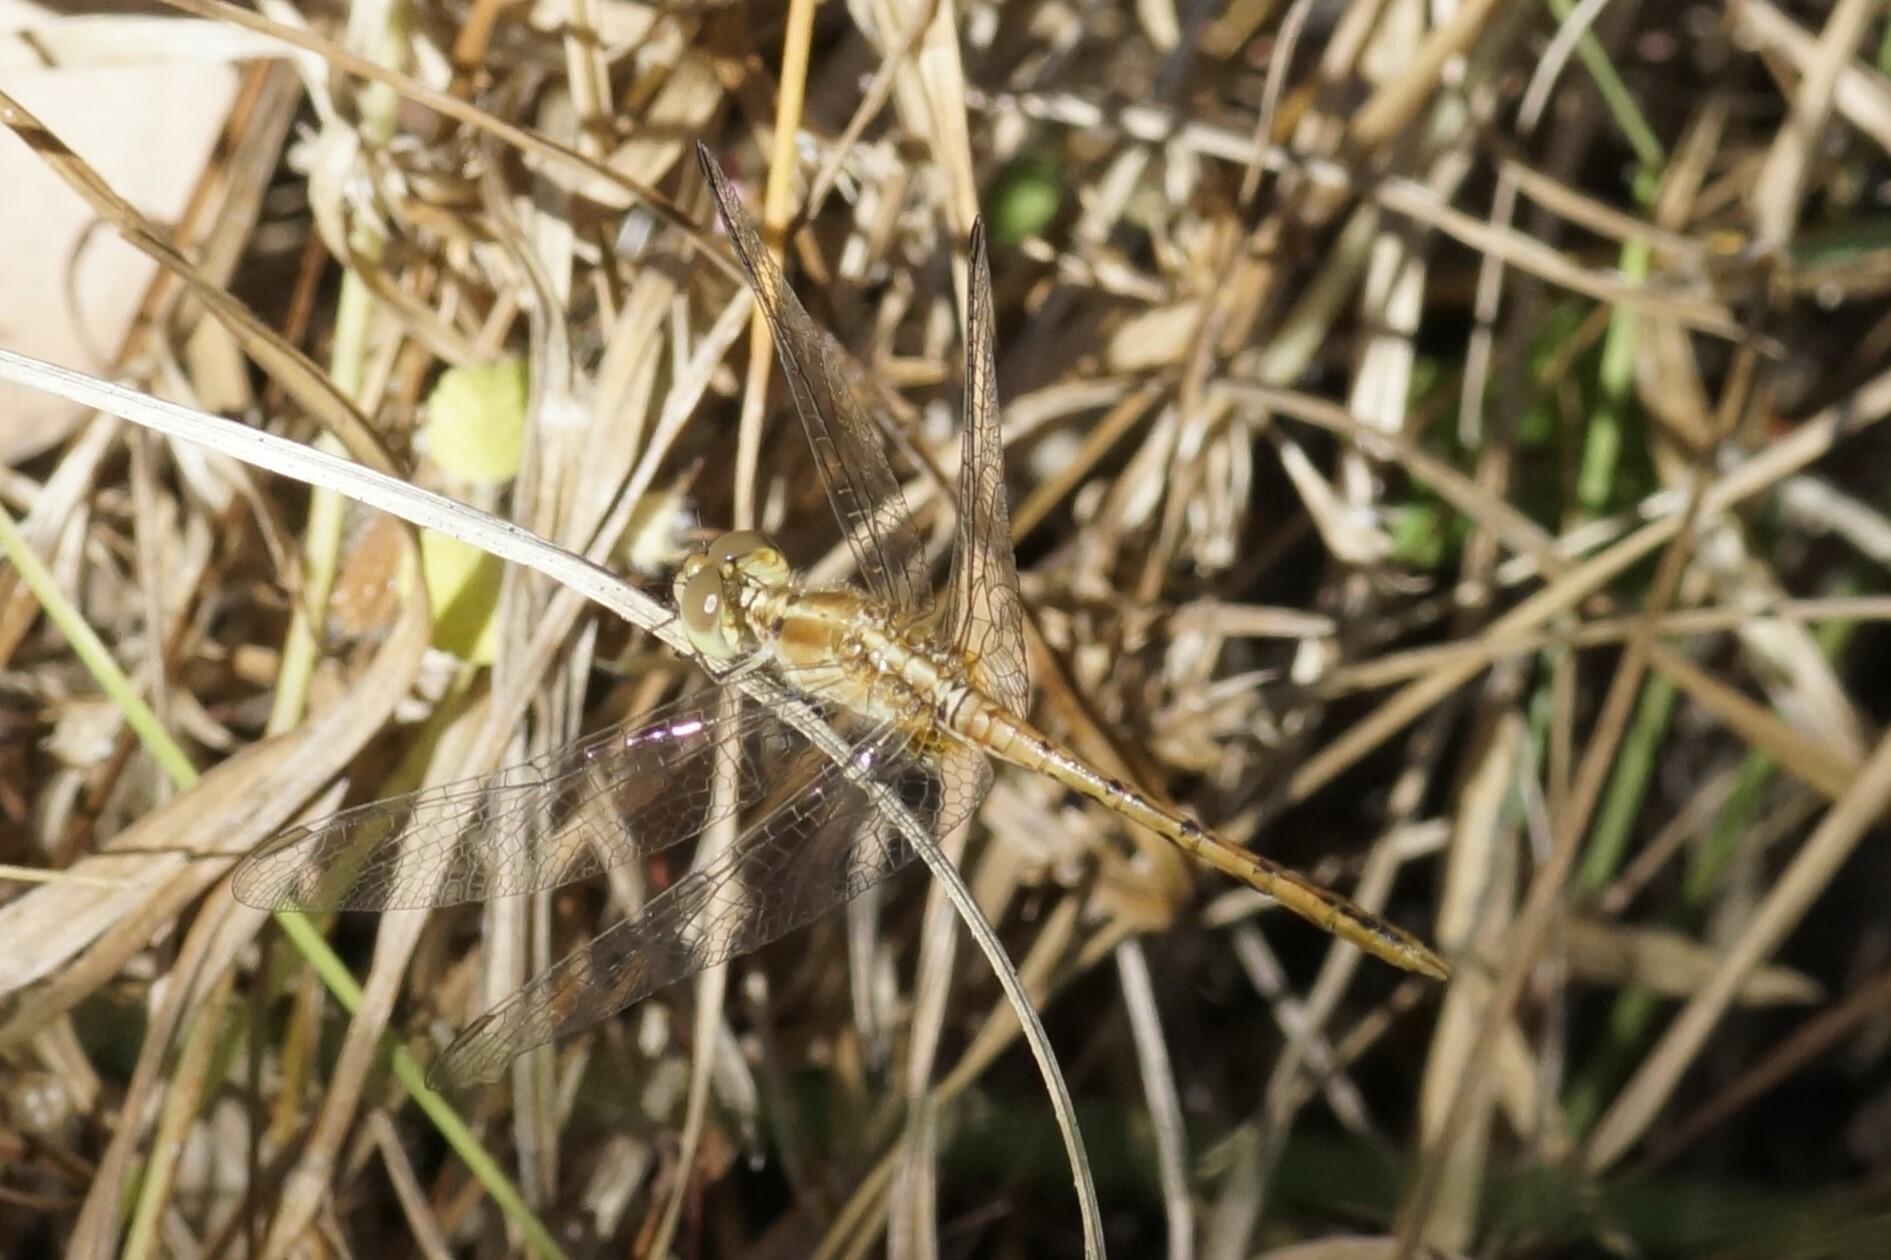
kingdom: Animalia
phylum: Arthropoda
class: Insecta
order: Odonata
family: Libellulidae
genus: Diplacodes
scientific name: Diplacodes bipunctata
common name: Red percher dragonfly
